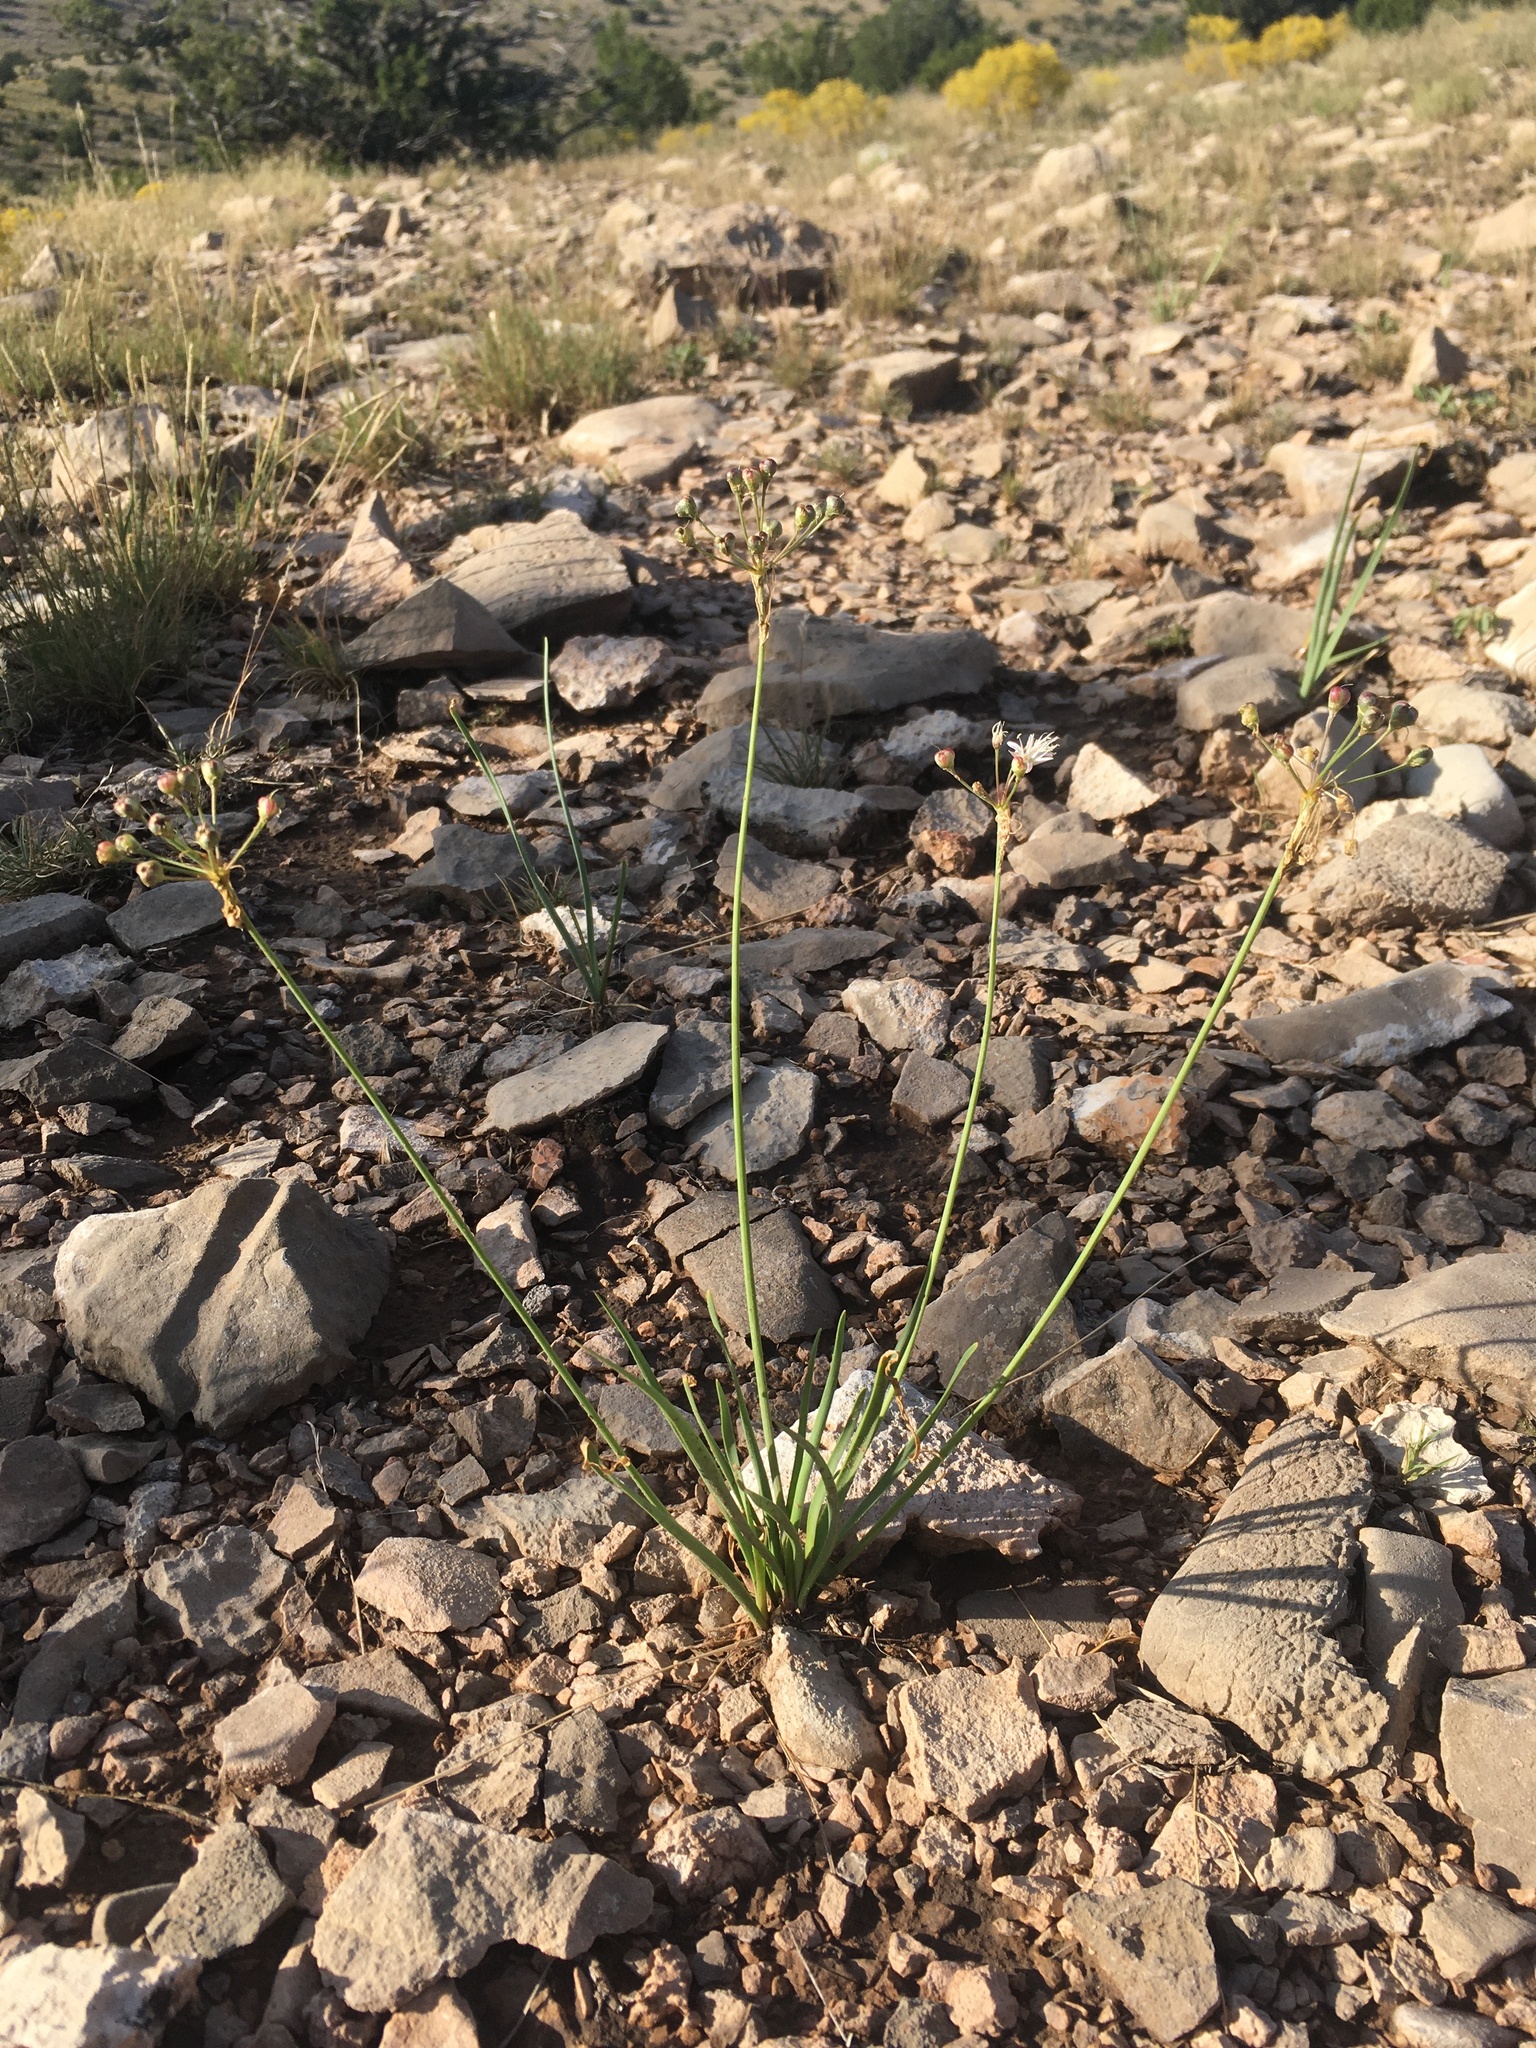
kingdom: Plantae
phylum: Tracheophyta
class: Liliopsida
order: Asparagales
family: Amaryllidaceae
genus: Allium
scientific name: Allium longifolium
